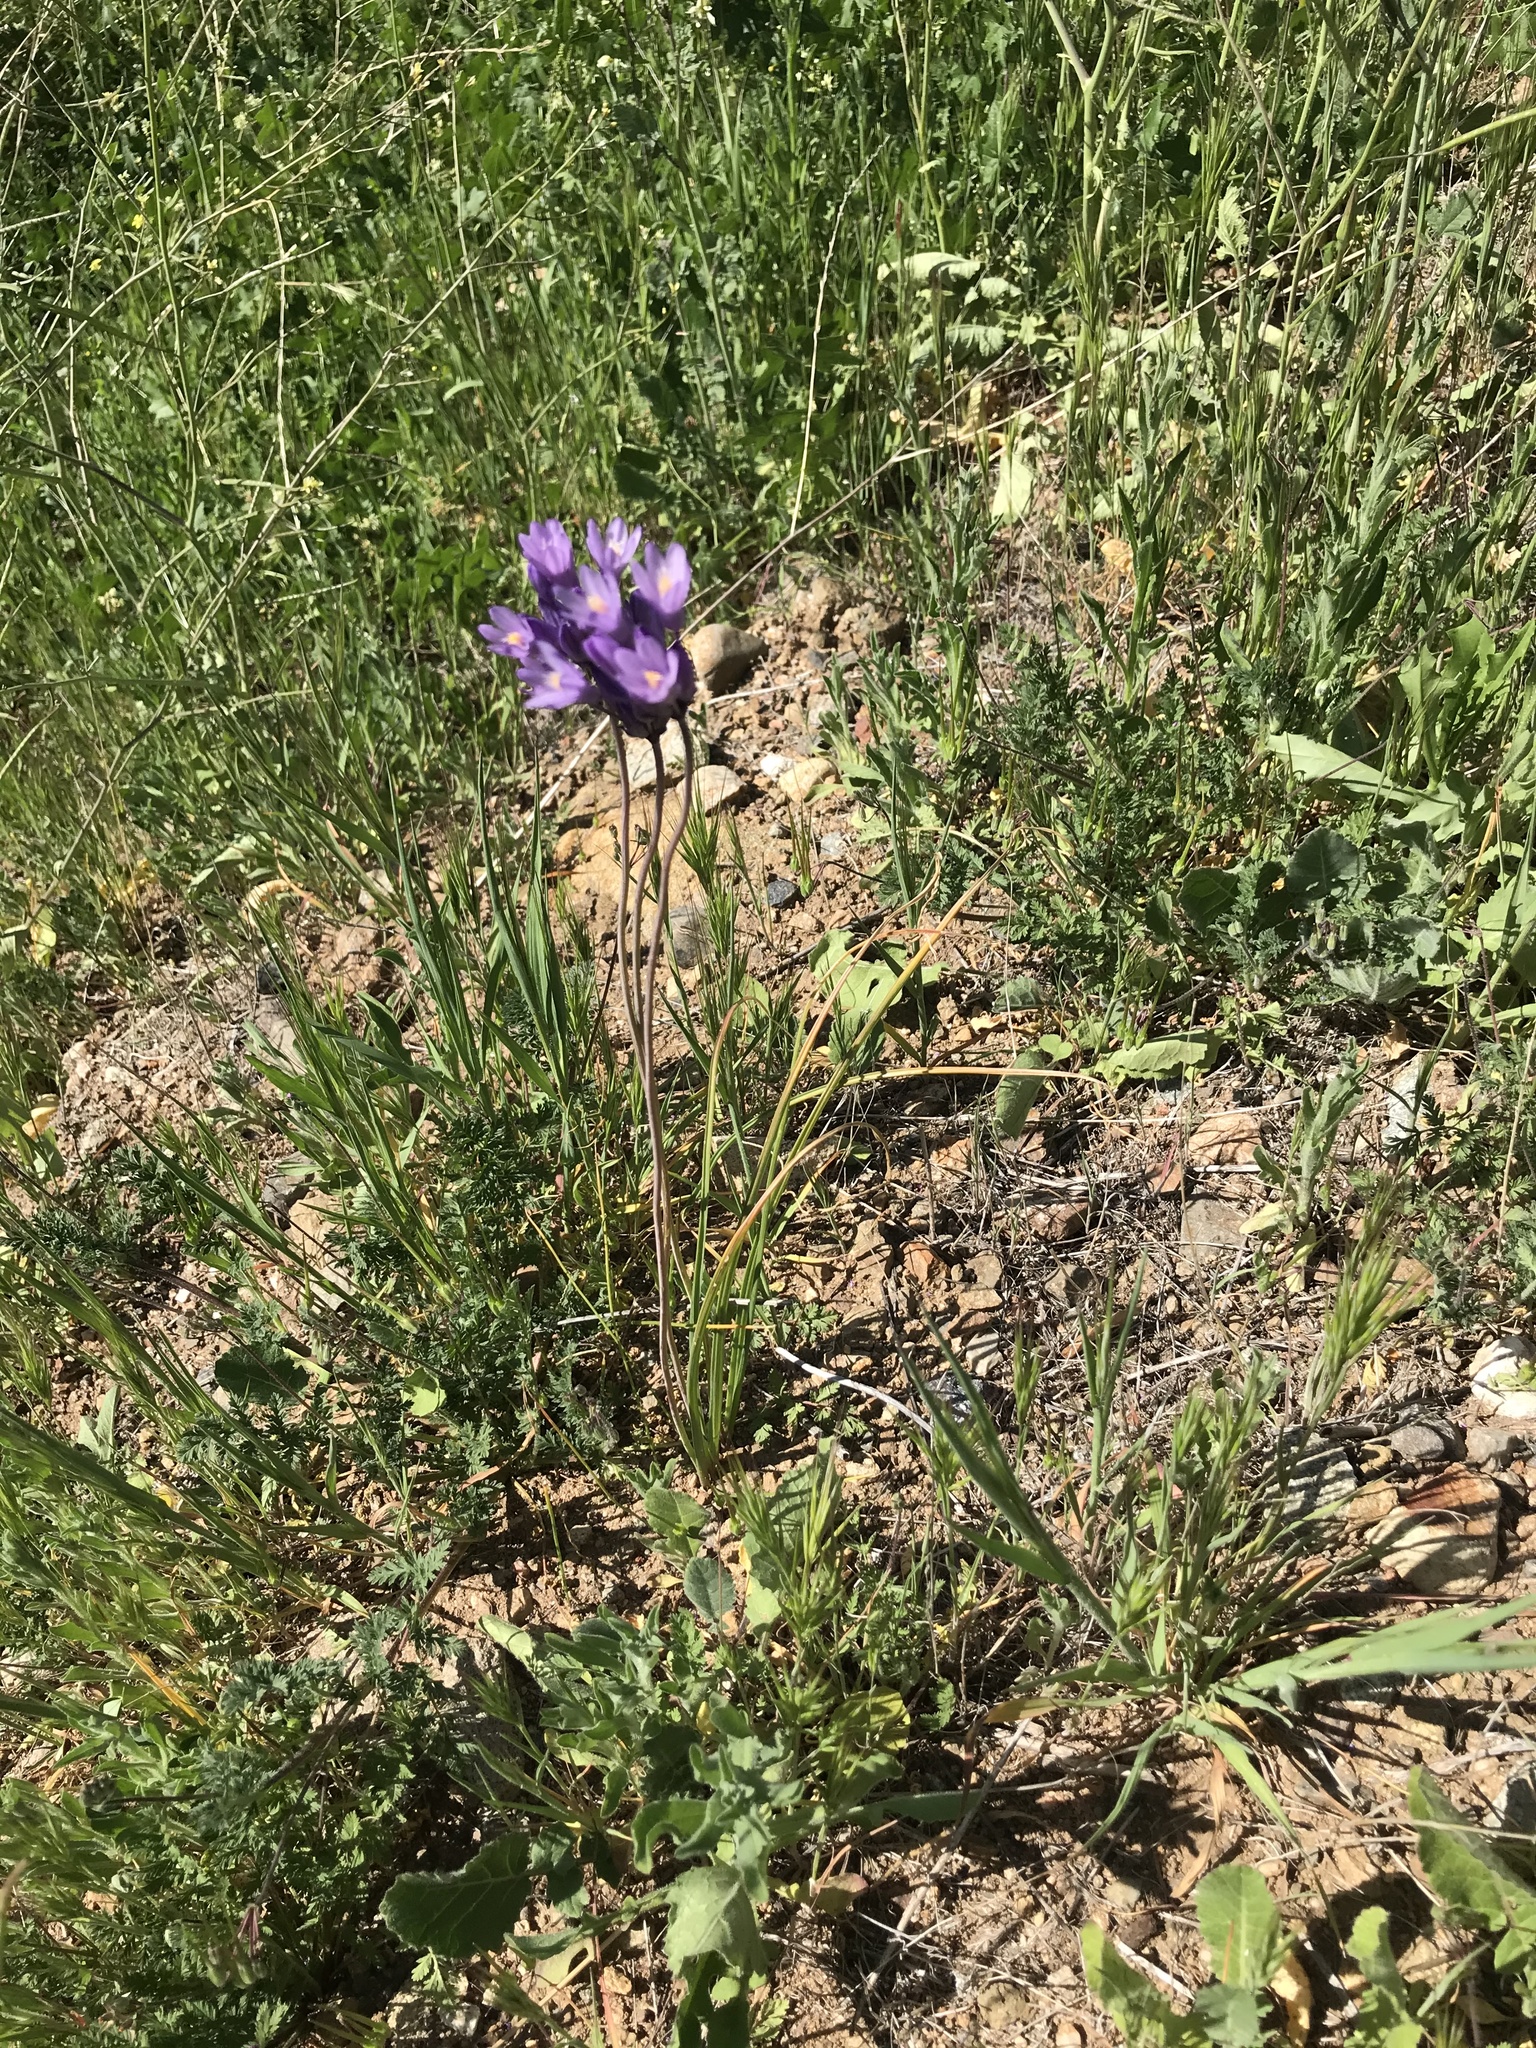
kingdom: Plantae
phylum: Tracheophyta
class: Liliopsida
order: Asparagales
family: Asparagaceae
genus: Dipterostemon
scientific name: Dipterostemon capitatus
